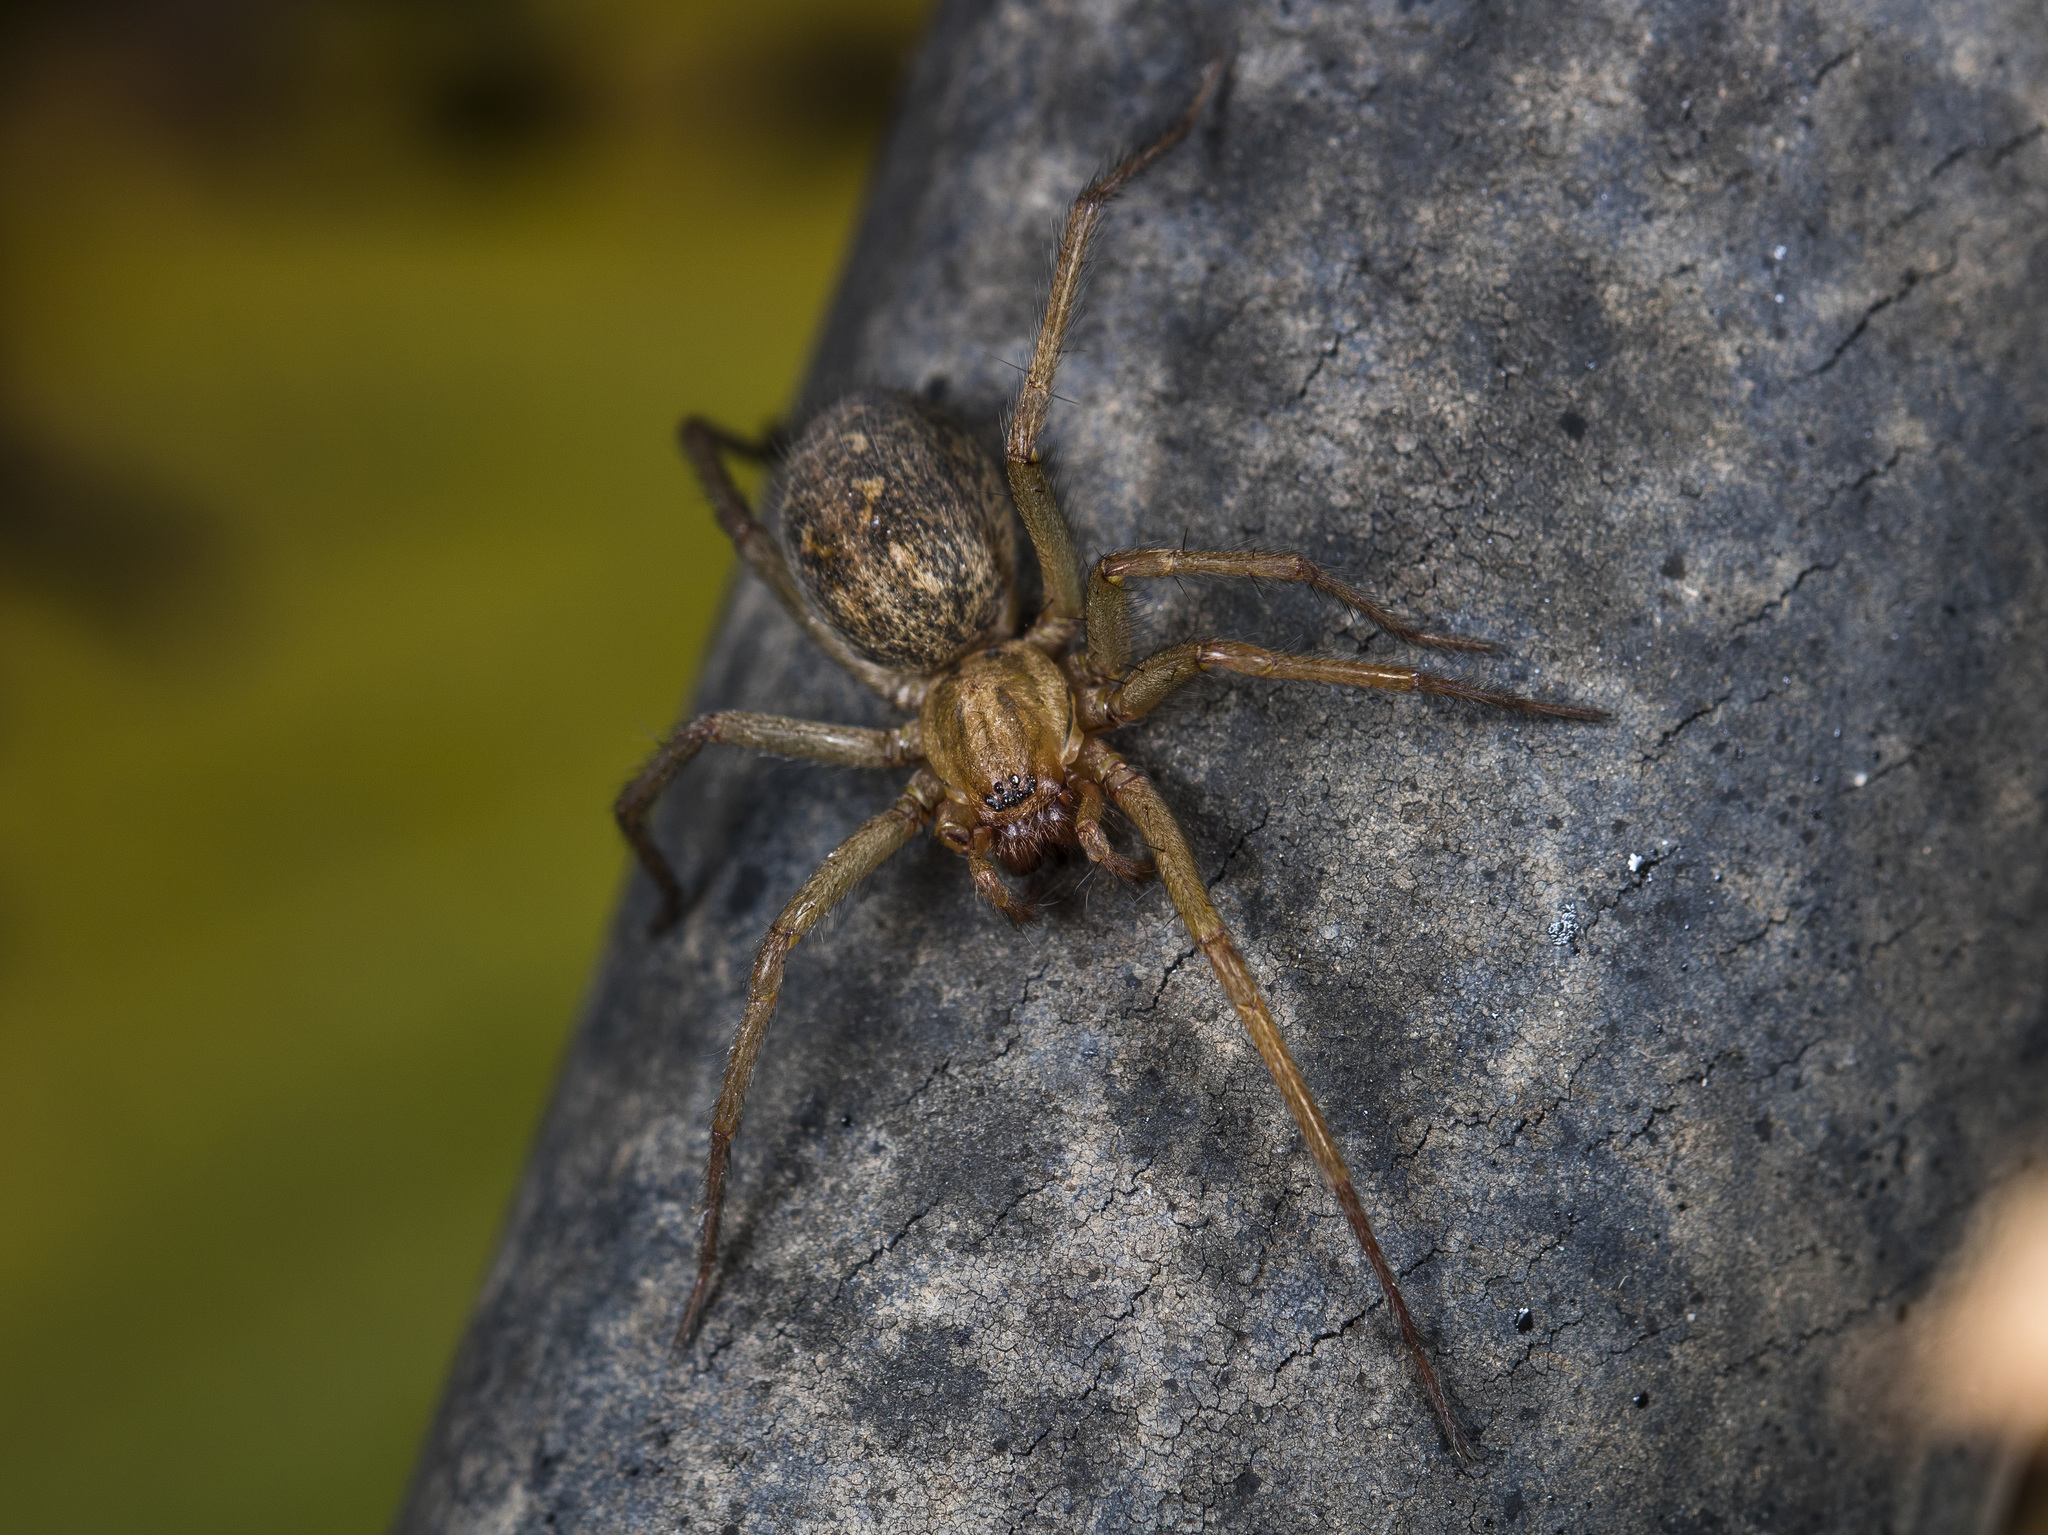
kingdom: Animalia
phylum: Arthropoda
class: Arachnida
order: Araneae
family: Agelenidae
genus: Eratigena
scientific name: Eratigena agrestis
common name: Hobo spider
